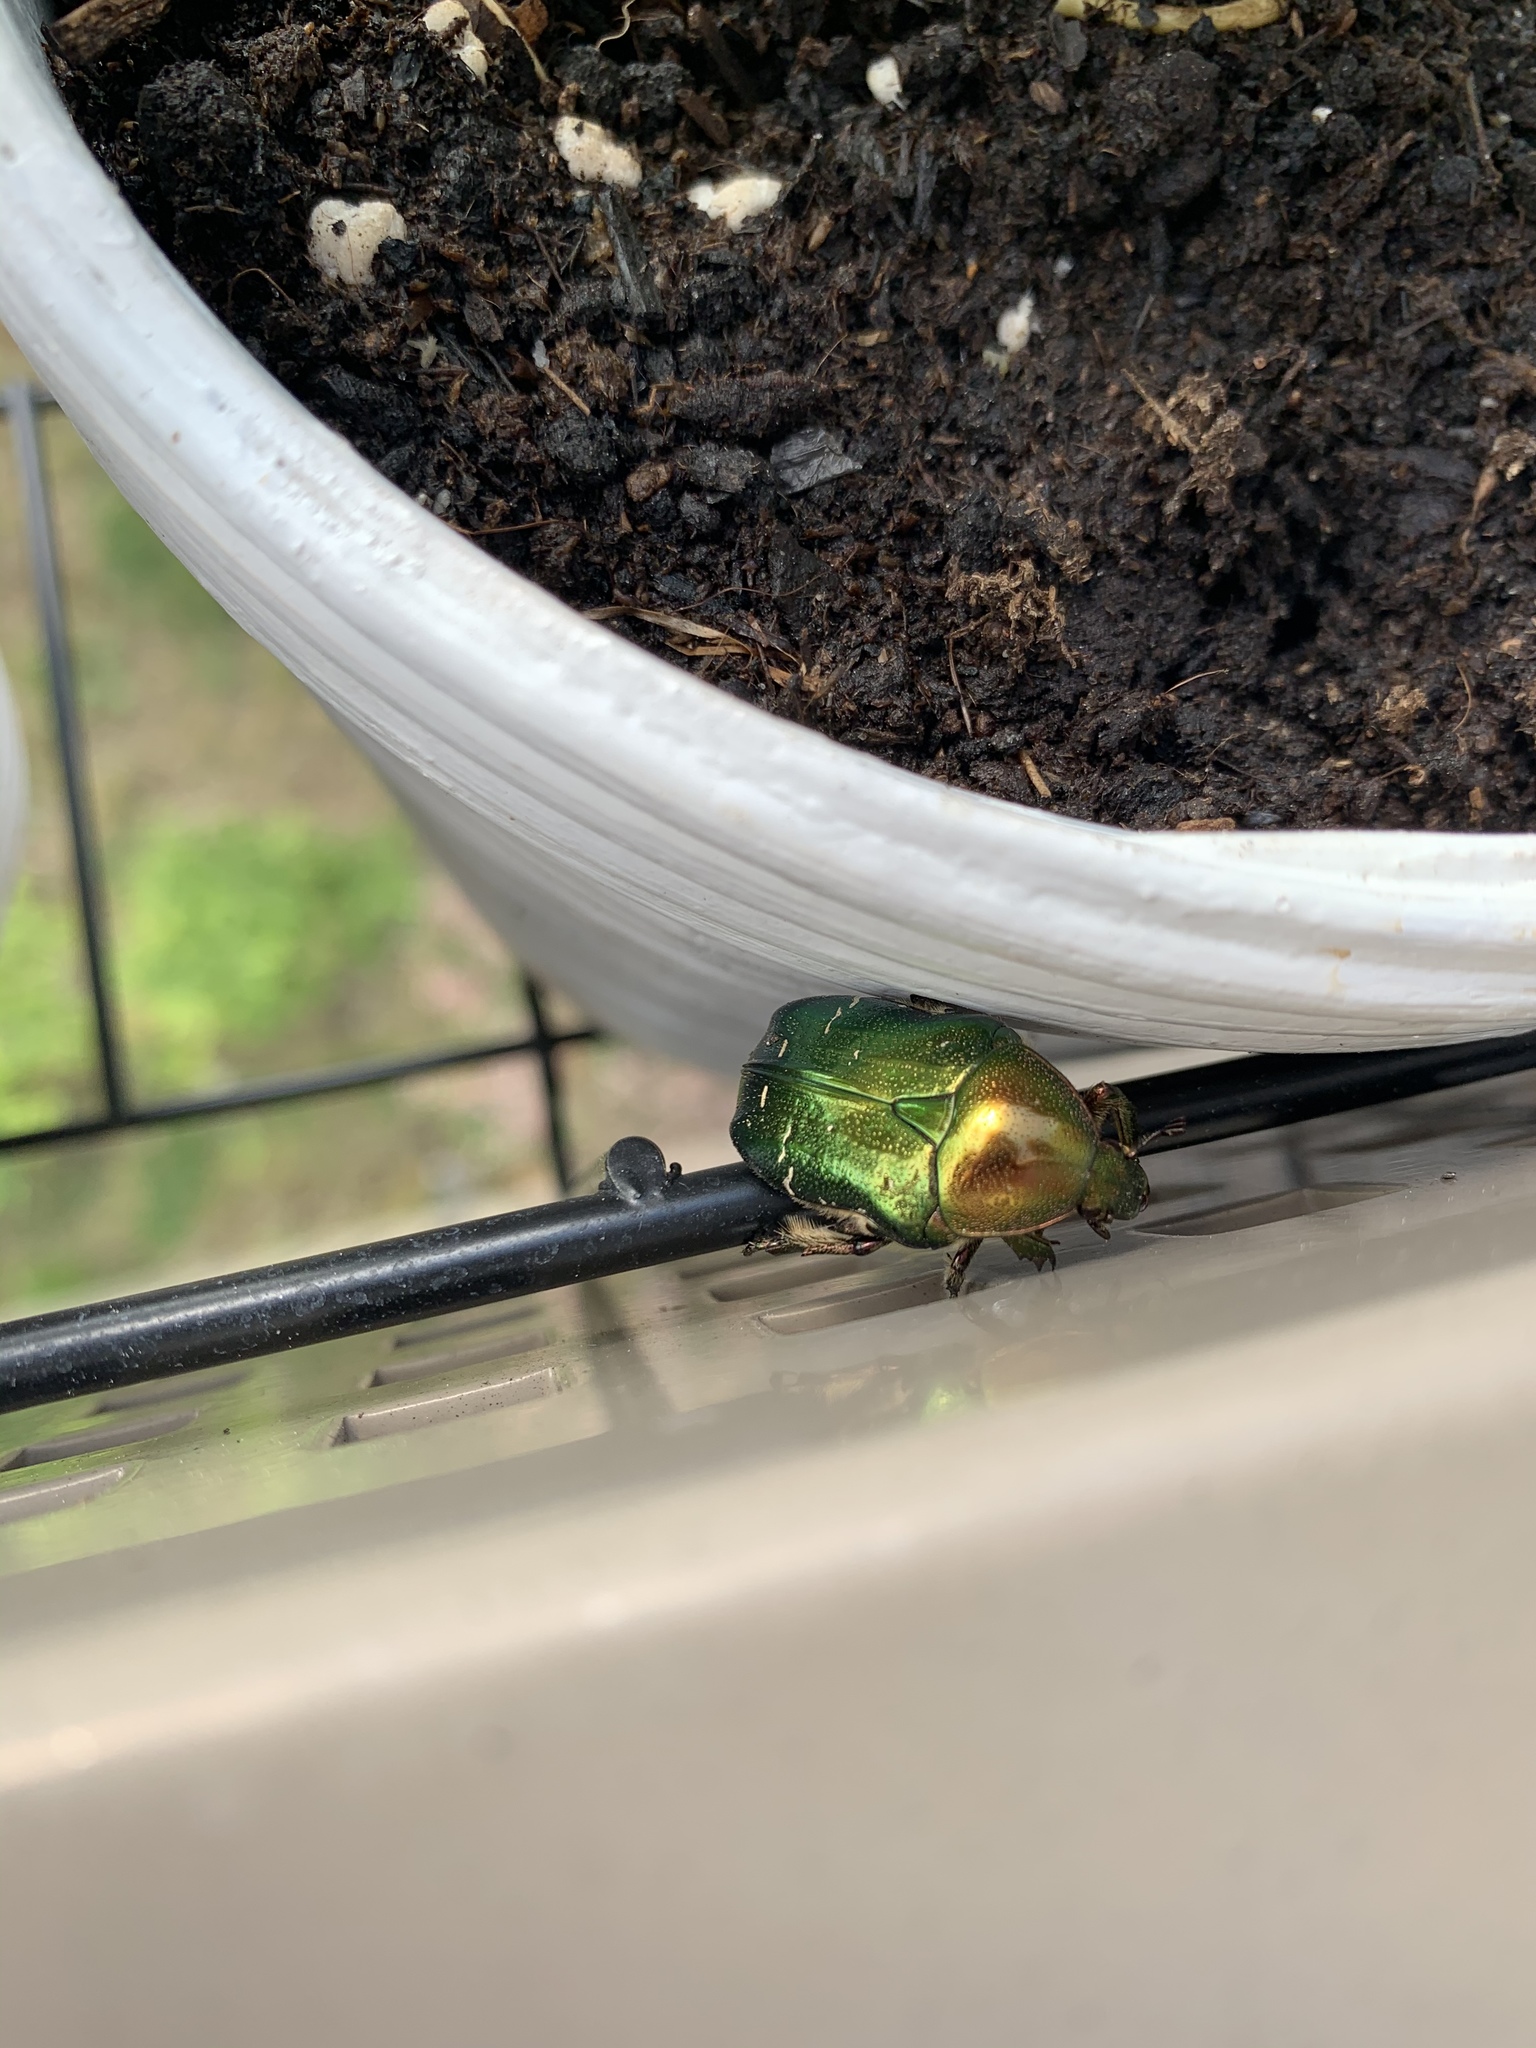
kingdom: Animalia
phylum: Arthropoda
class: Insecta
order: Coleoptera
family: Scarabaeidae
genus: Cetonia
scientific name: Cetonia aurata
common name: Rose chafer
